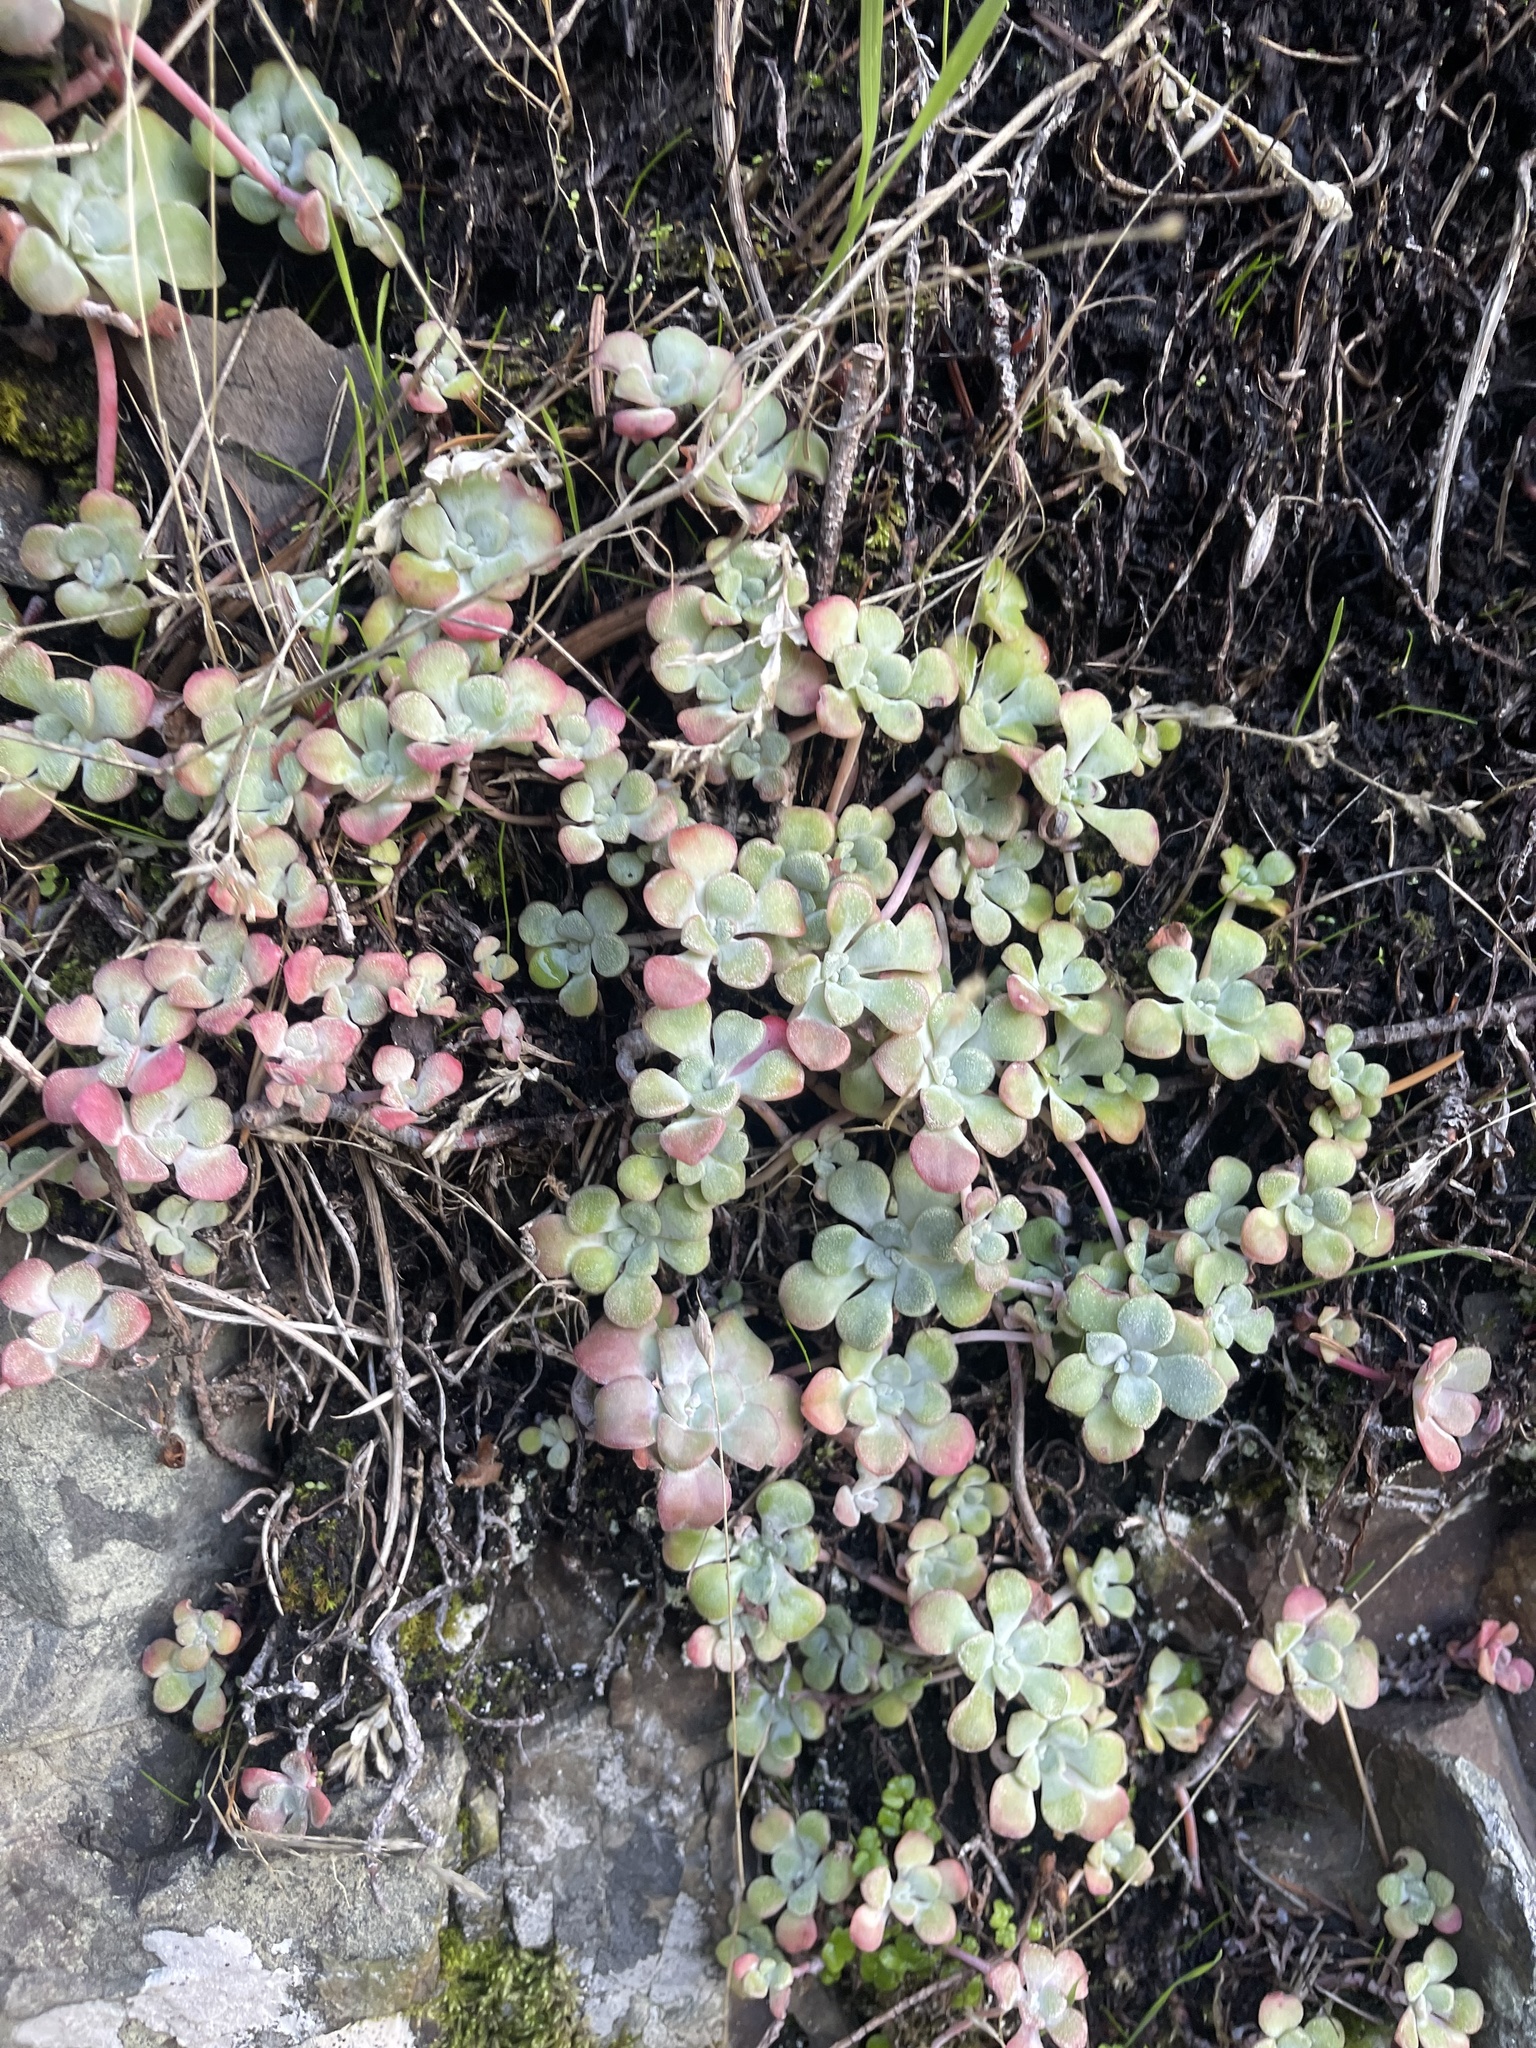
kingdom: Plantae
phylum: Tracheophyta
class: Magnoliopsida
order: Saxifragales
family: Crassulaceae
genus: Sedum
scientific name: Sedum spathulifolium
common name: Colorado stonecrop
